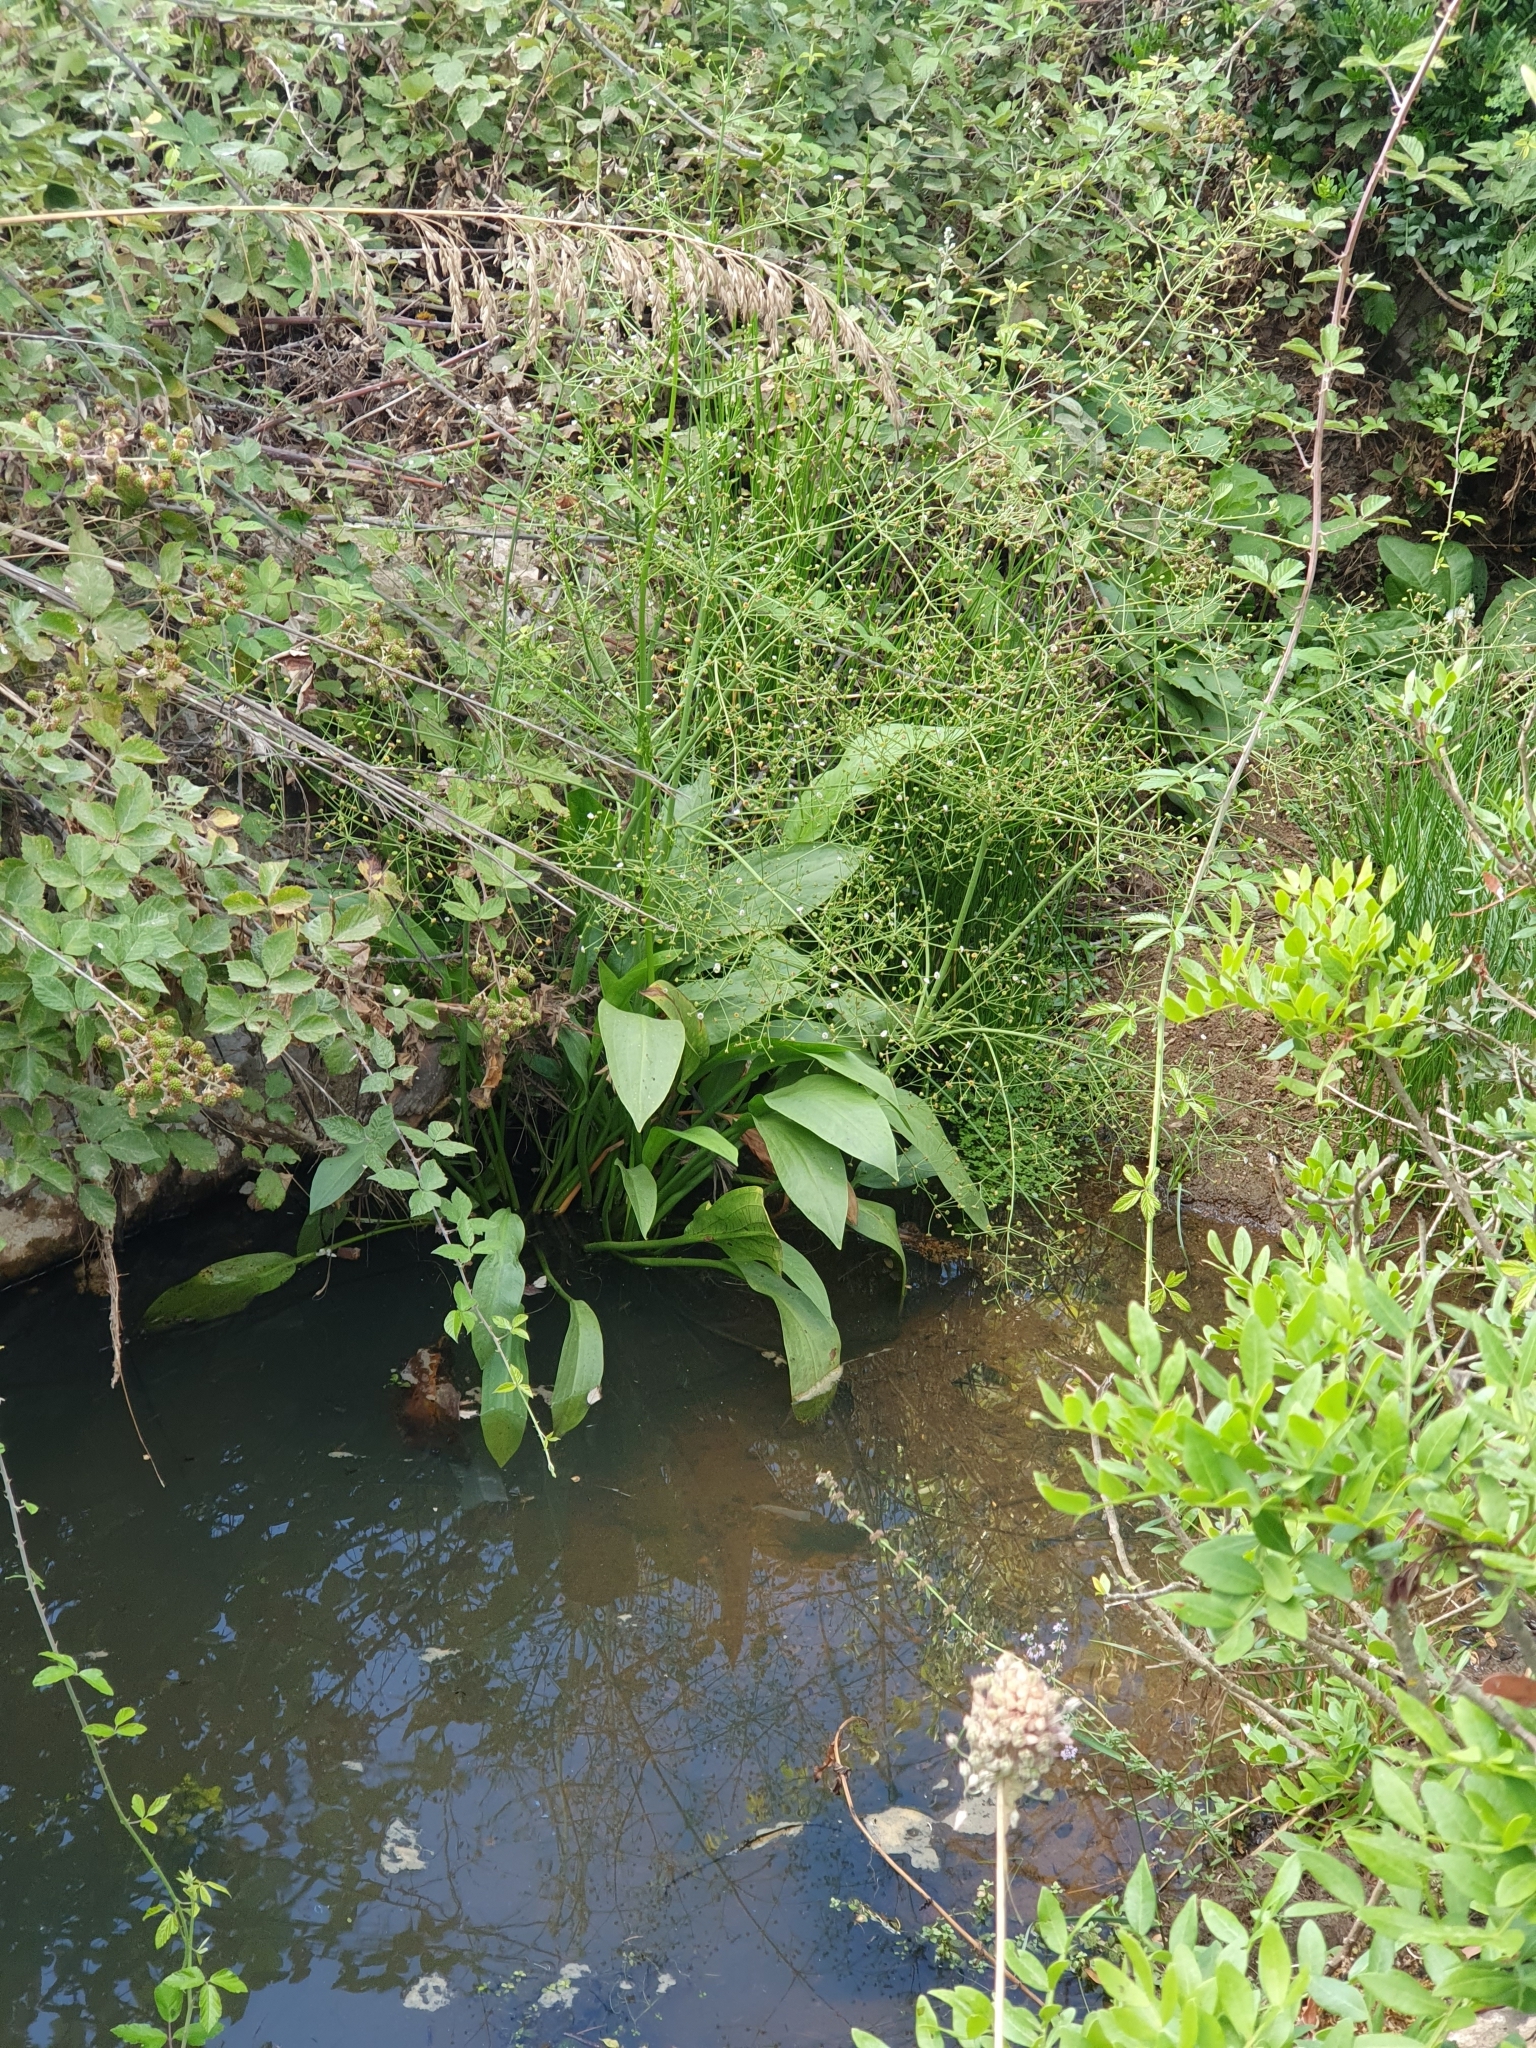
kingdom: Plantae
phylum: Tracheophyta
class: Liliopsida
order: Alismatales
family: Alismataceae
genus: Alisma
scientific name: Alisma plantago-aquatica
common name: Water-plantain
